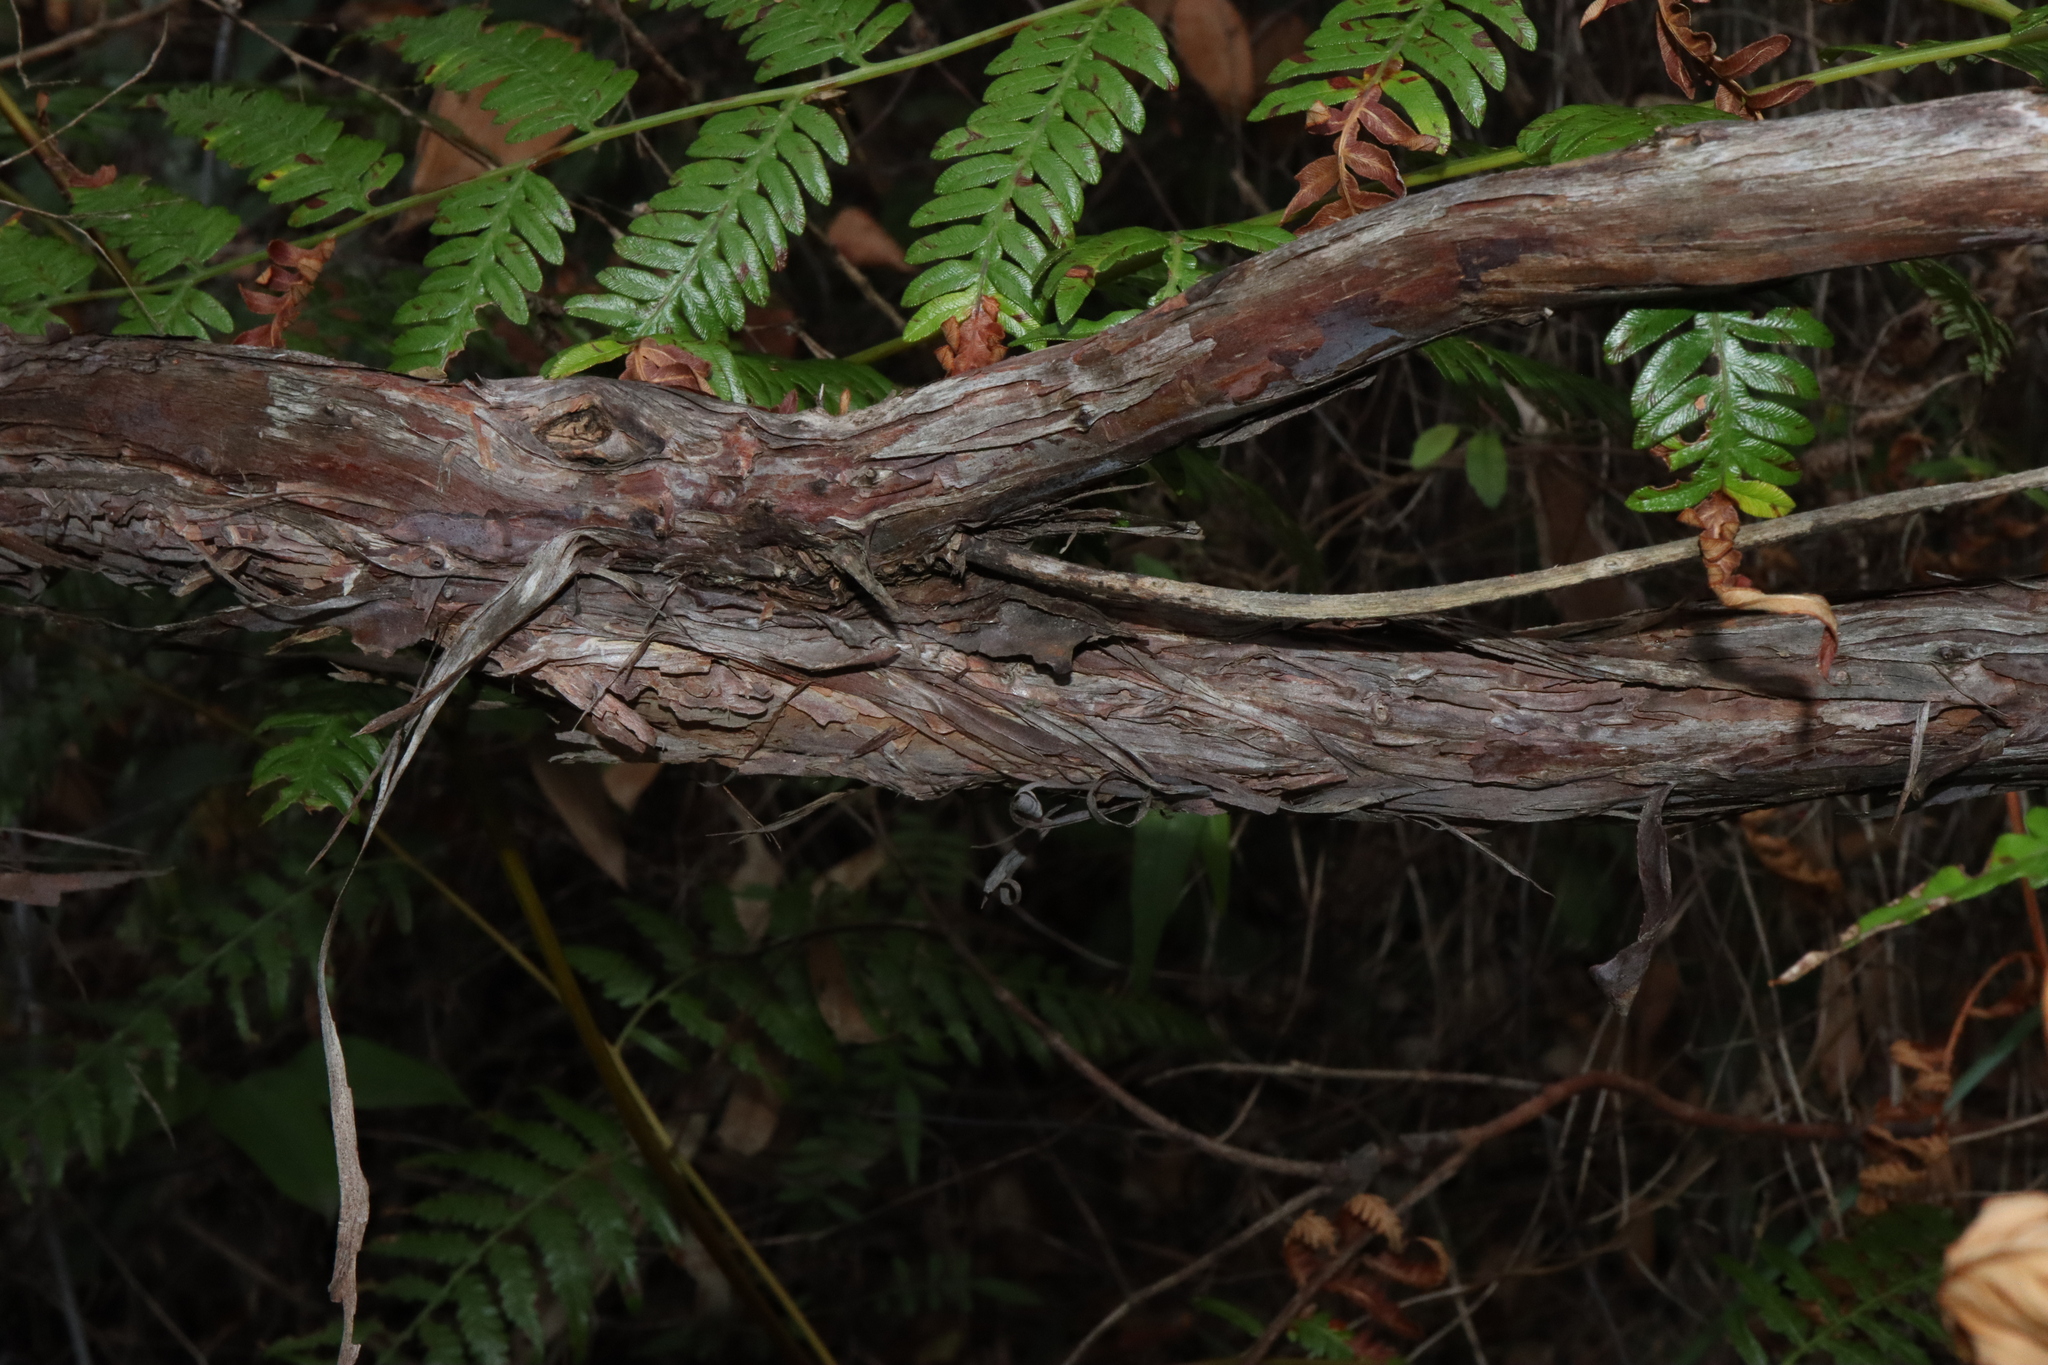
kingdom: Plantae
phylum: Tracheophyta
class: Magnoliopsida
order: Myrtales
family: Myrtaceae
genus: Leptospermum
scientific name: Leptospermum trinervium
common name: Flaky-barked tea-tree
